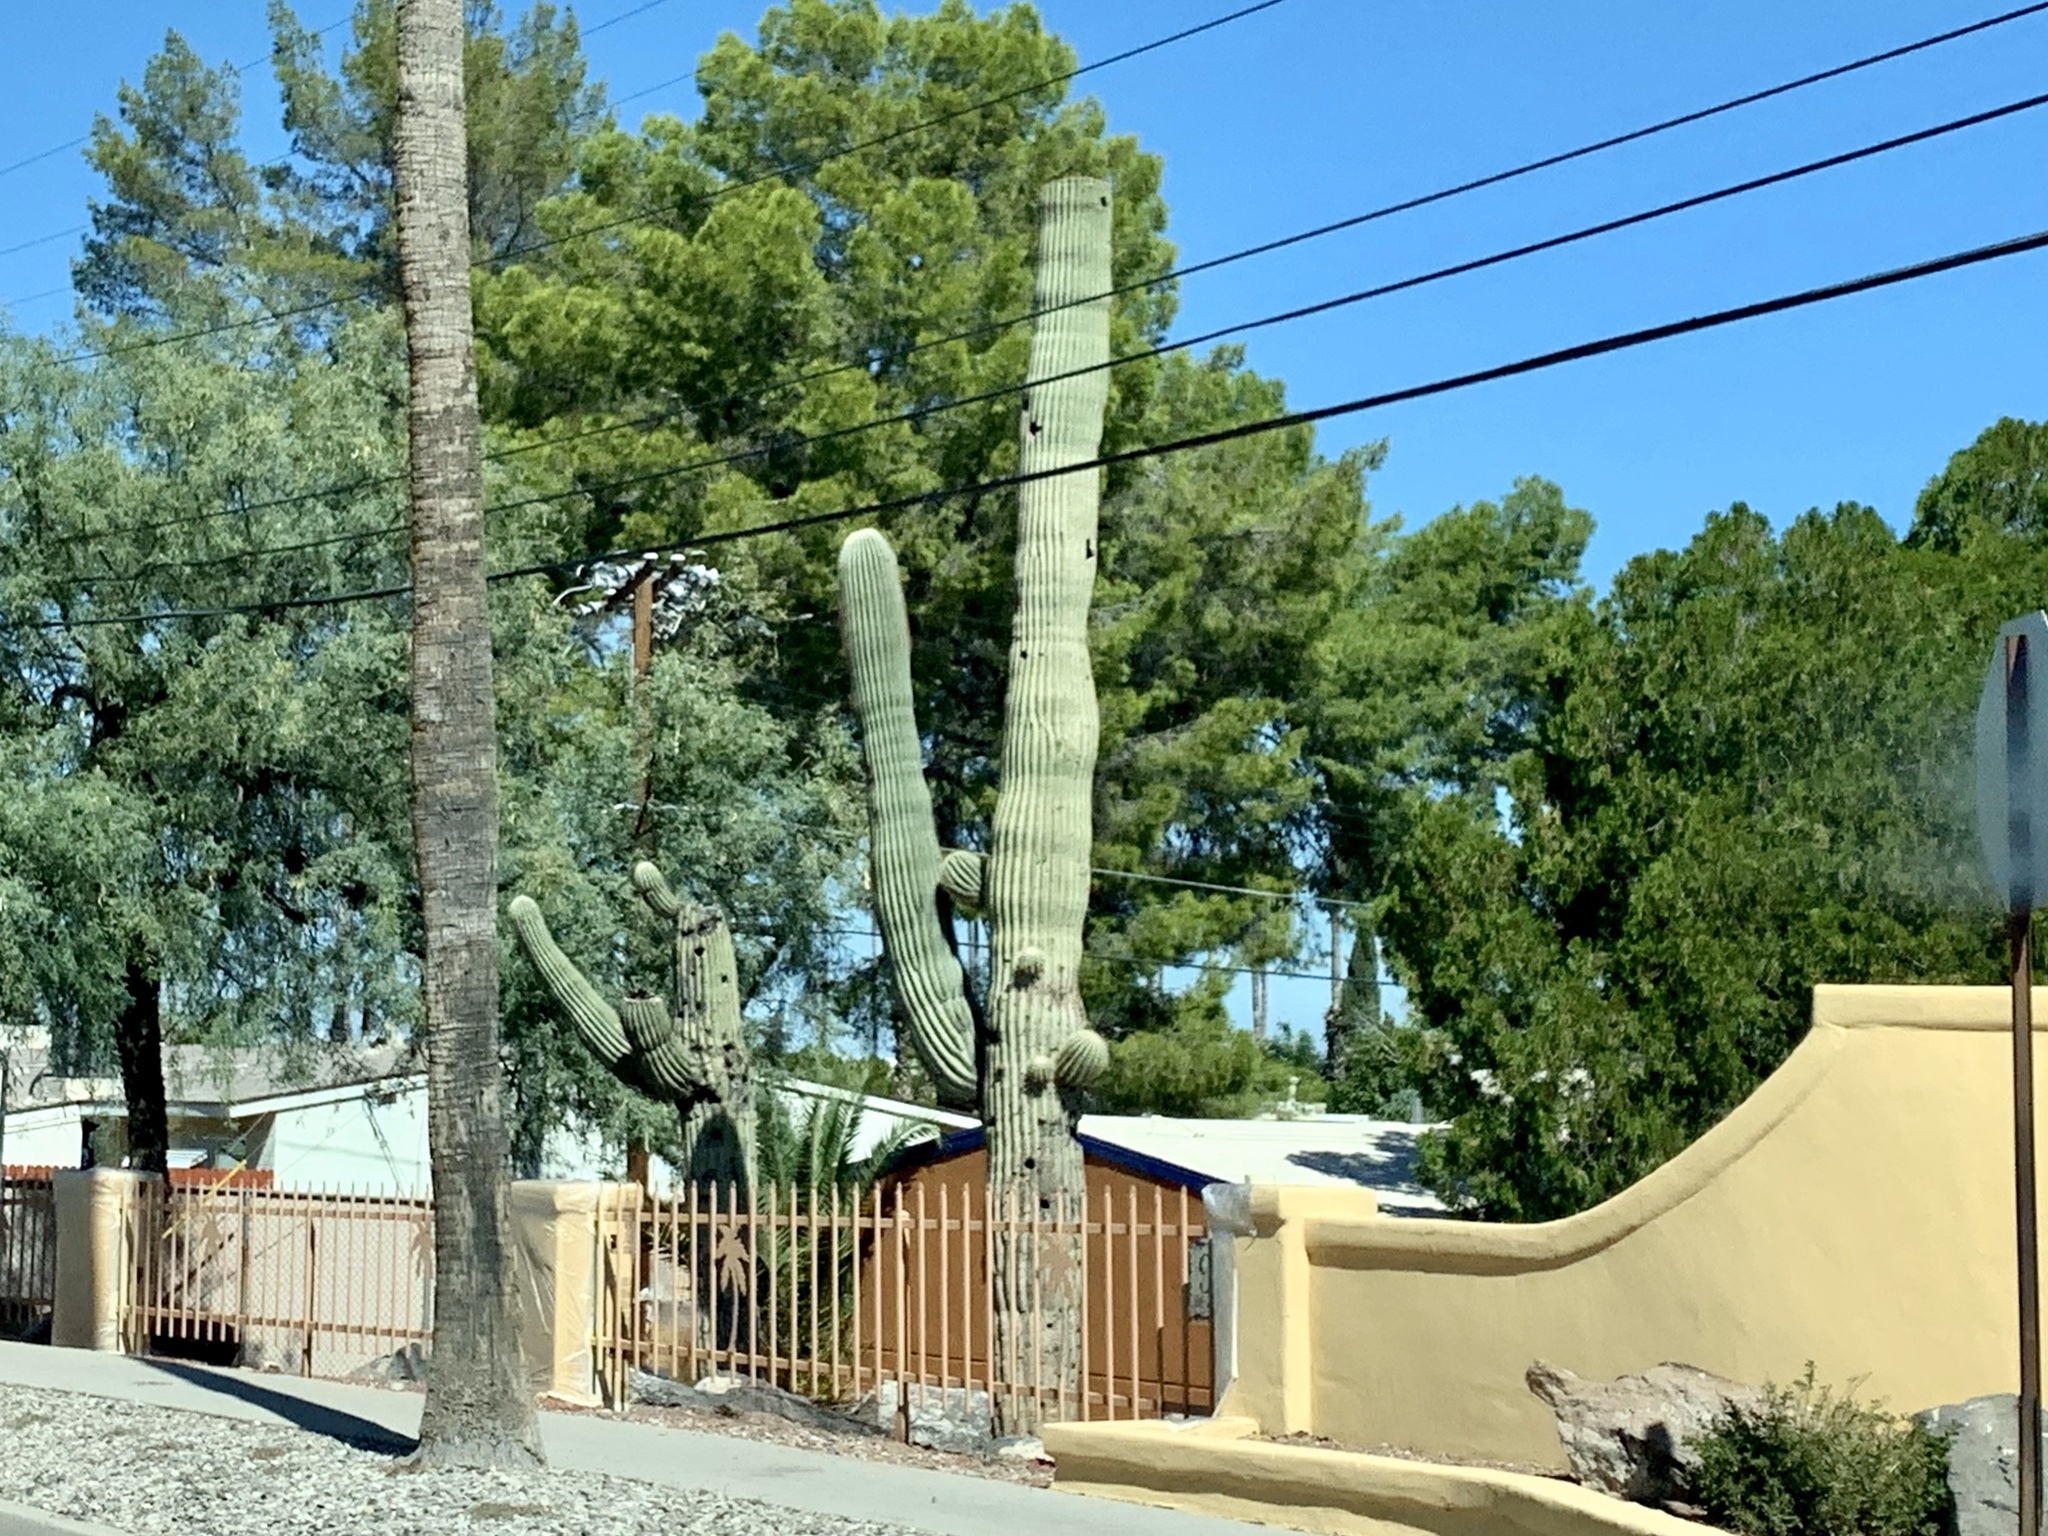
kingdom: Plantae
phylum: Tracheophyta
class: Magnoliopsida
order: Caryophyllales
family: Cactaceae
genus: Carnegiea
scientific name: Carnegiea gigantea
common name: Saguaro
